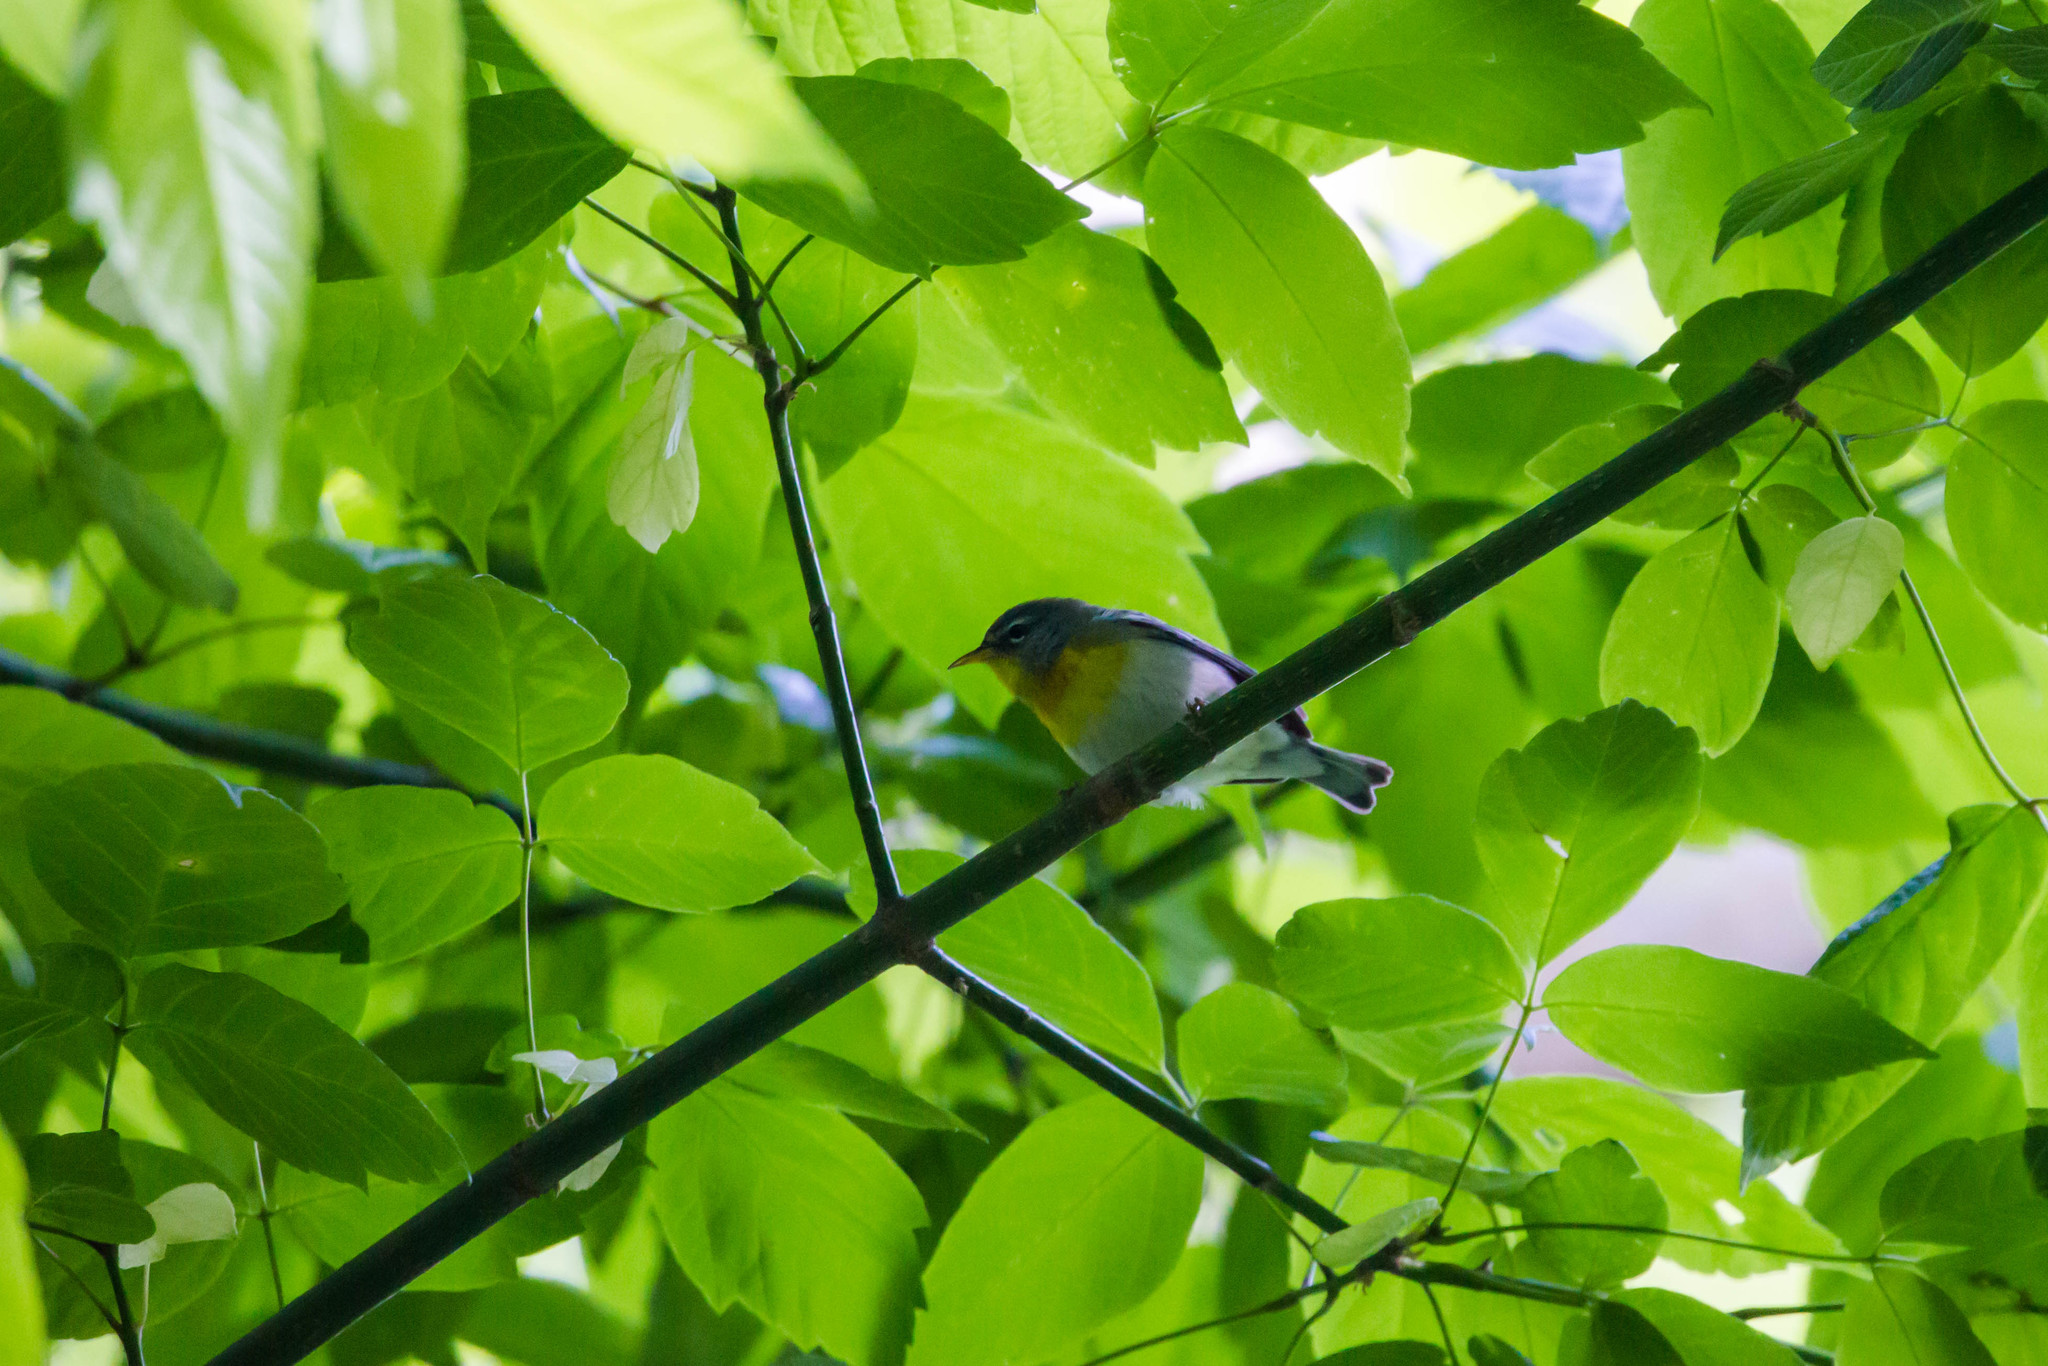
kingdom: Animalia
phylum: Chordata
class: Aves
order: Passeriformes
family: Parulidae
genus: Setophaga
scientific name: Setophaga americana
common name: Northern parula
